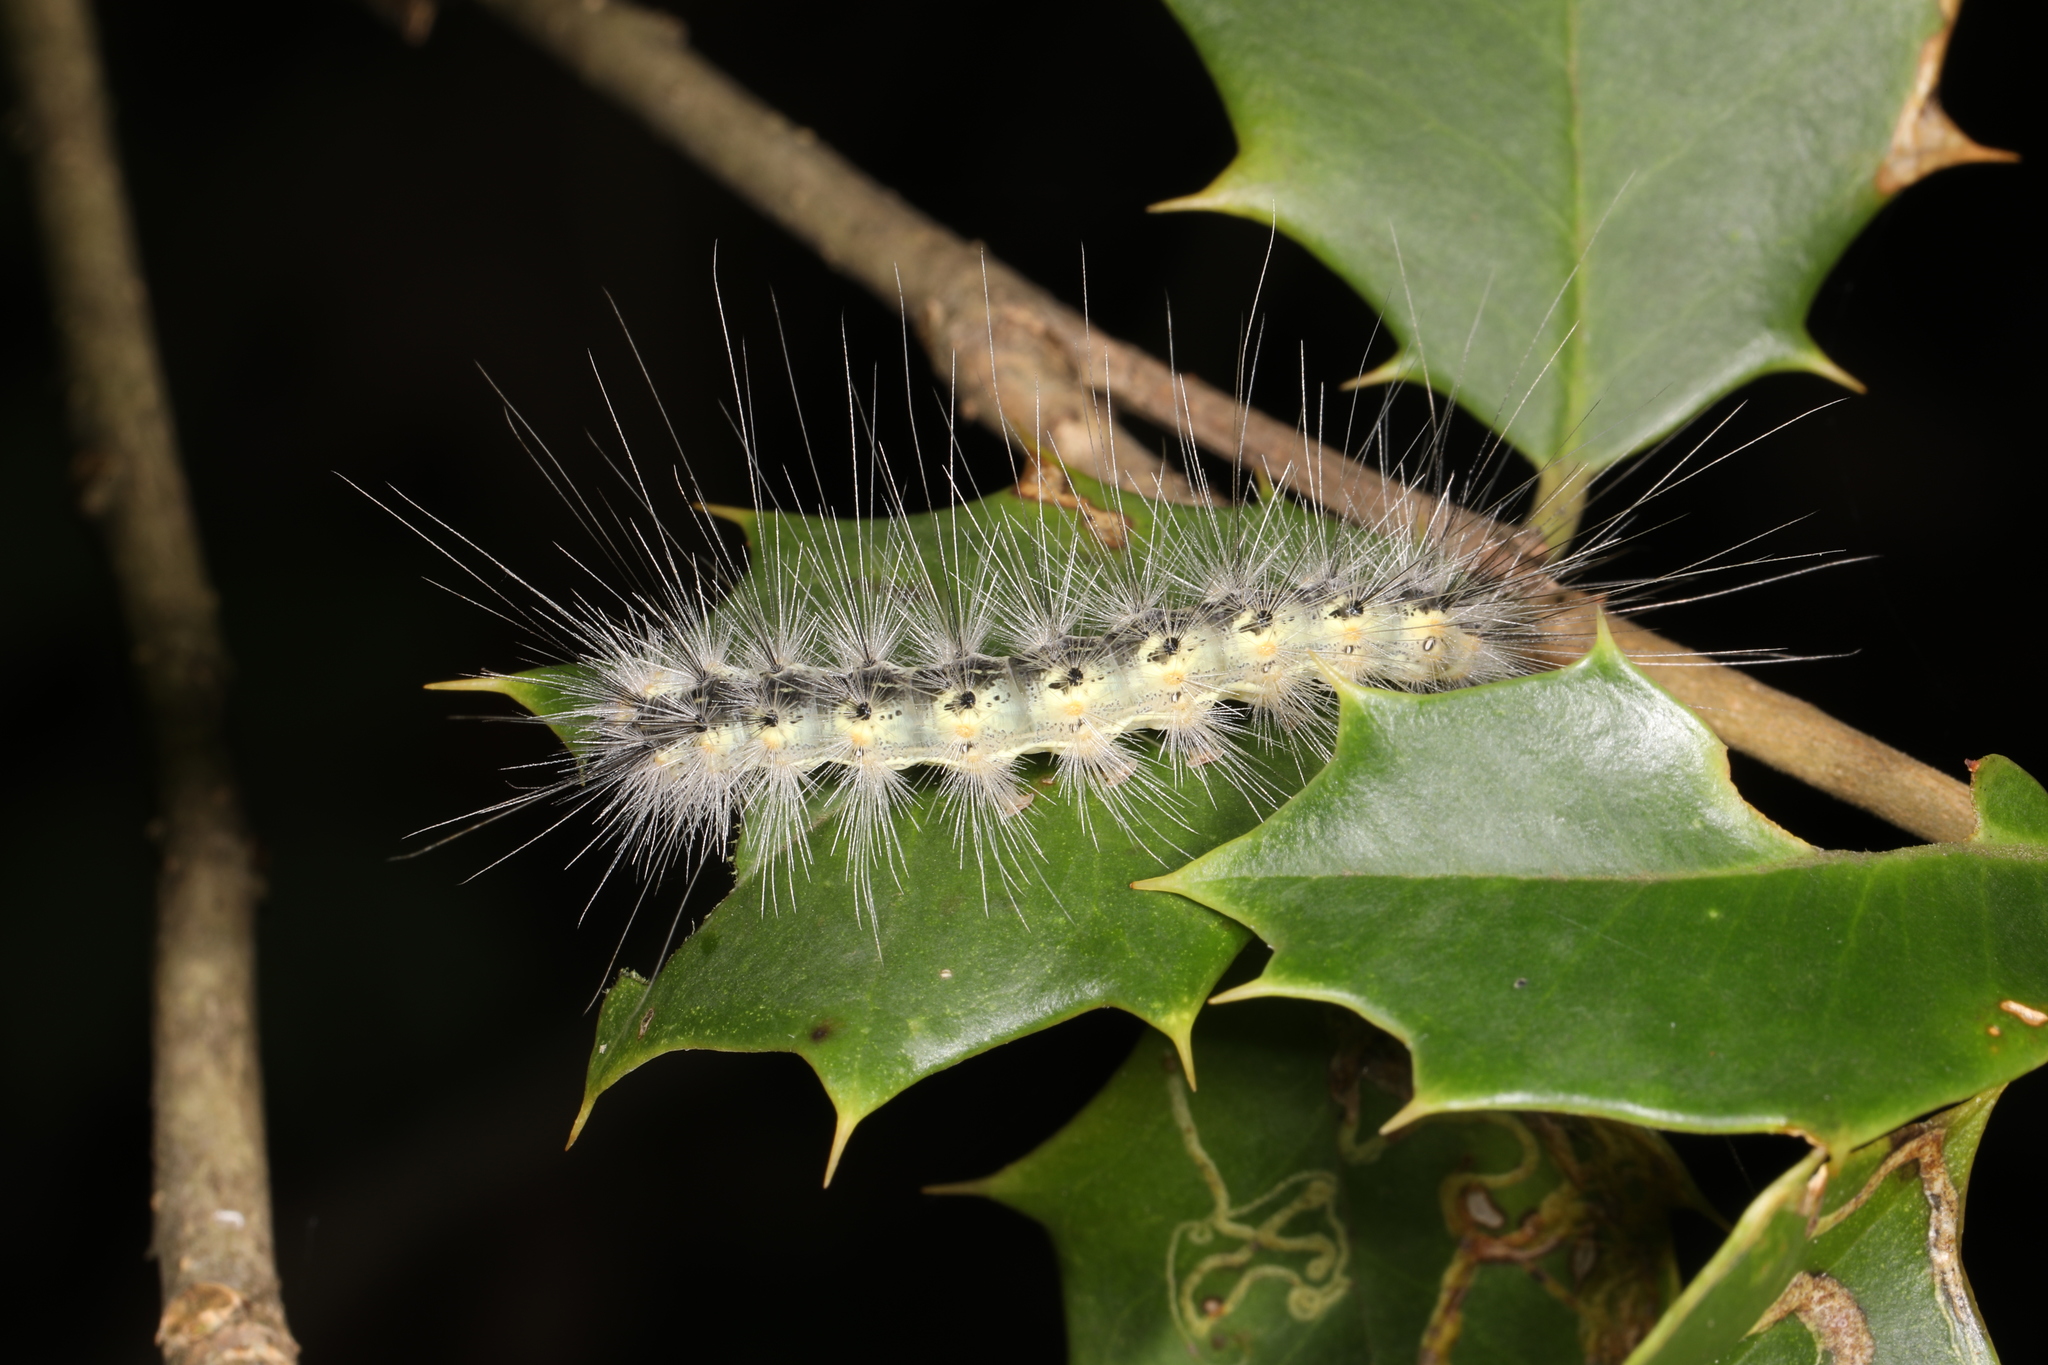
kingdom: Animalia
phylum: Arthropoda
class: Insecta
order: Lepidoptera
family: Erebidae
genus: Hyphantria
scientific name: Hyphantria cunea
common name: American white moth
